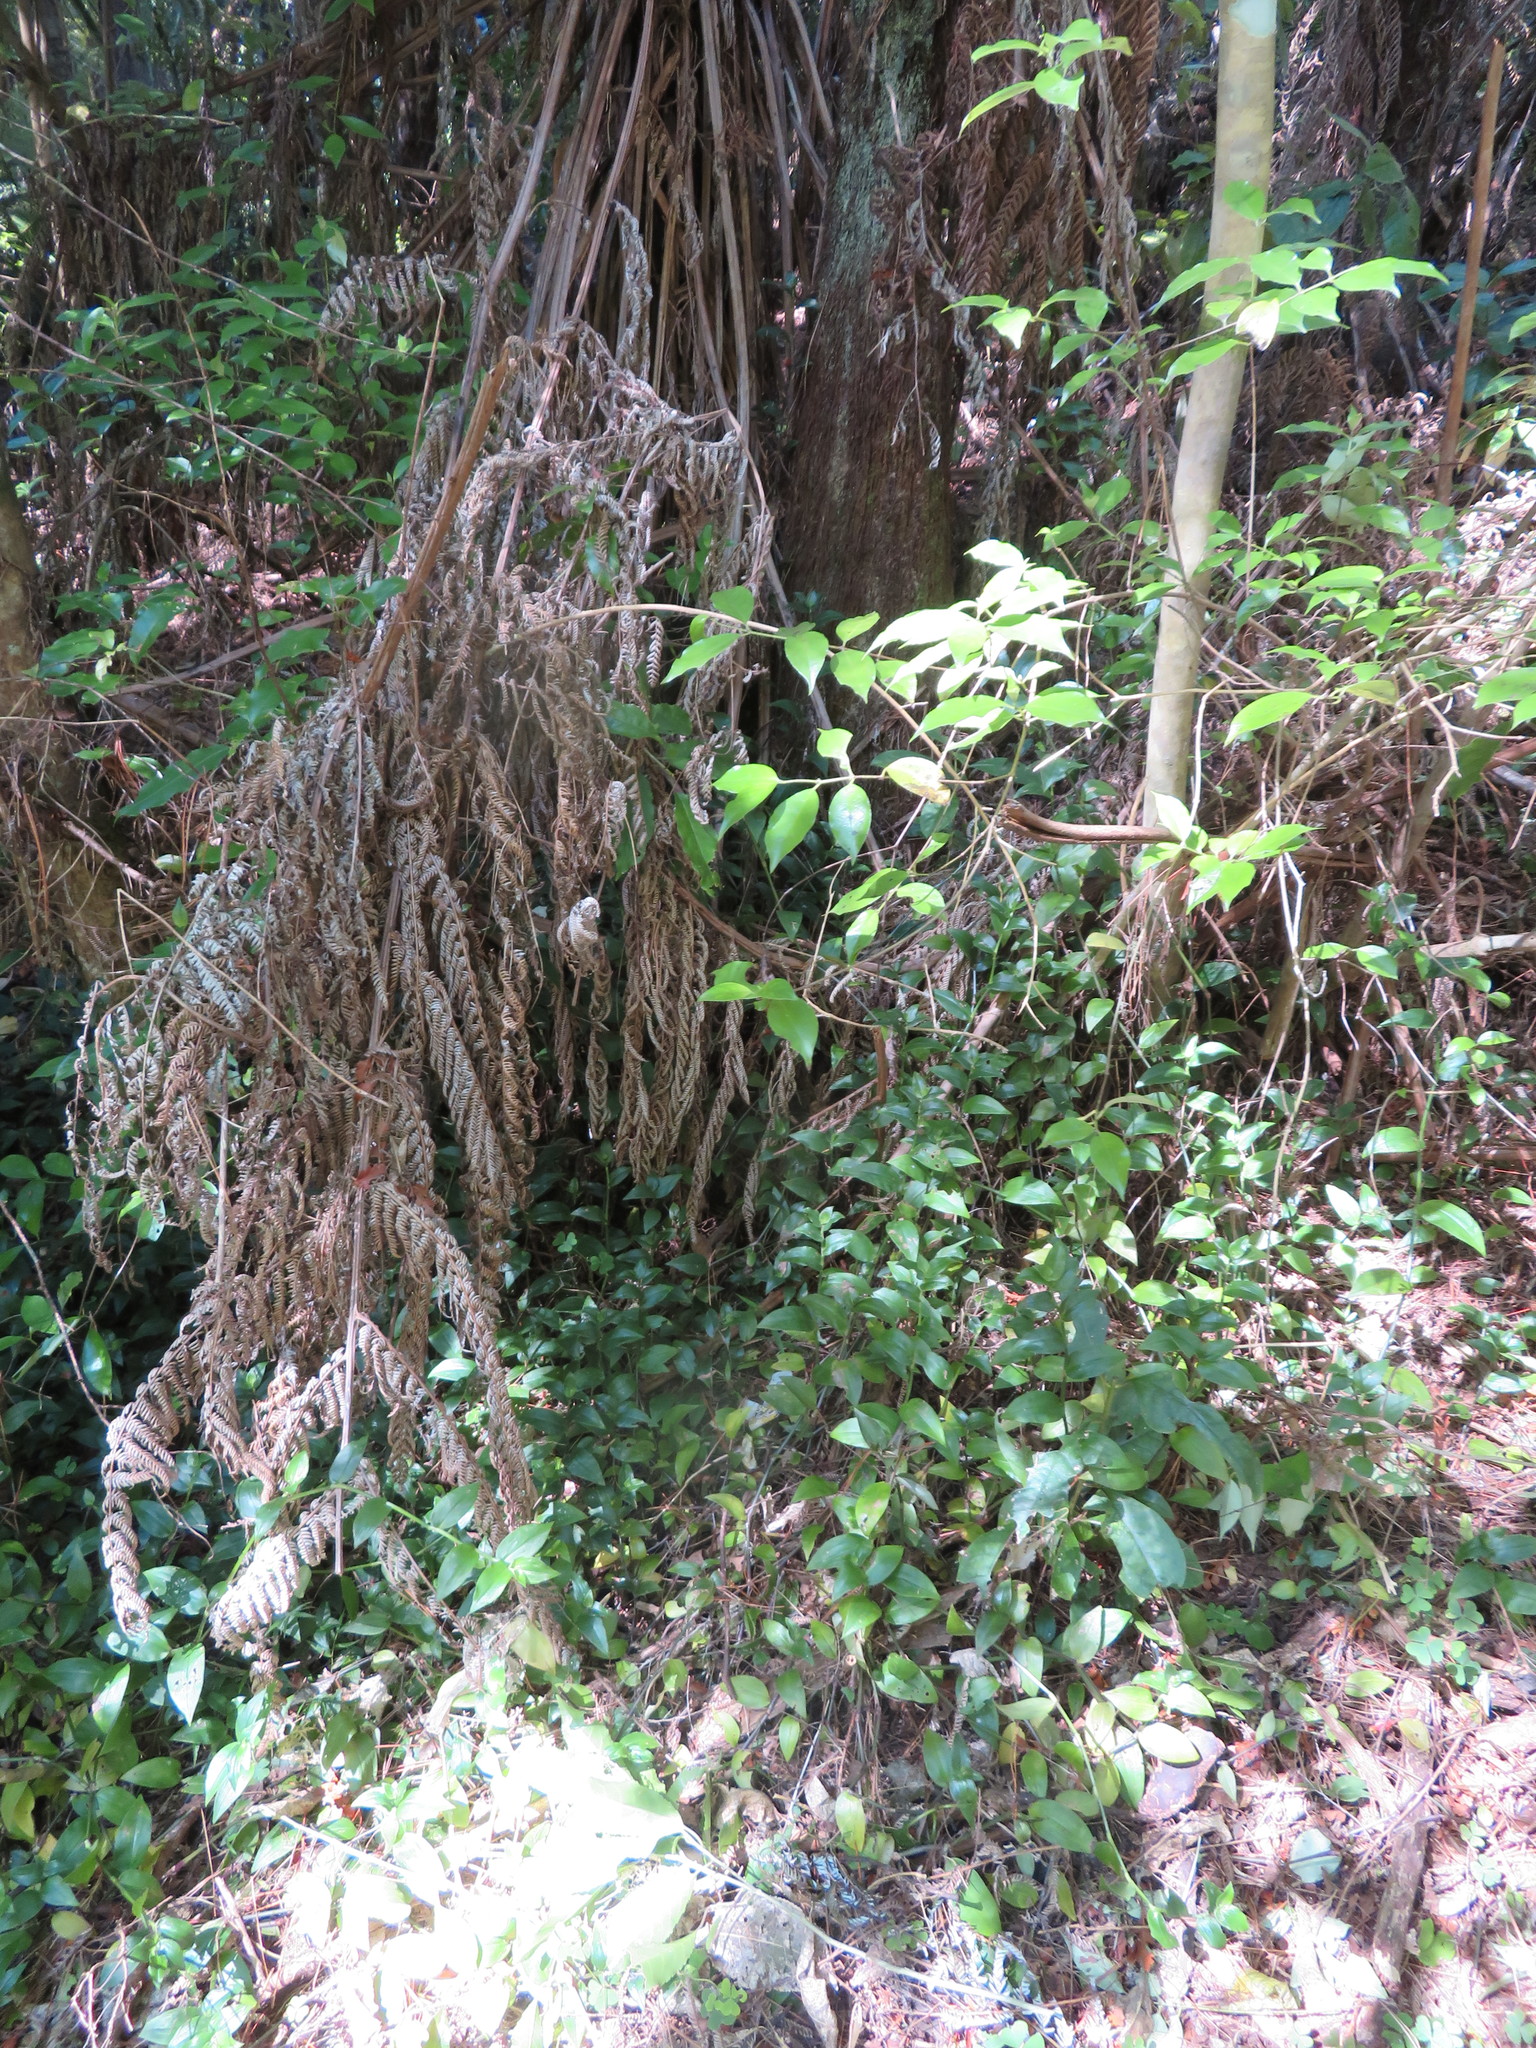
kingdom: Plantae
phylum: Tracheophyta
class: Magnoliopsida
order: Gentianales
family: Loganiaceae
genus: Geniostoma
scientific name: Geniostoma ligustrifolium
